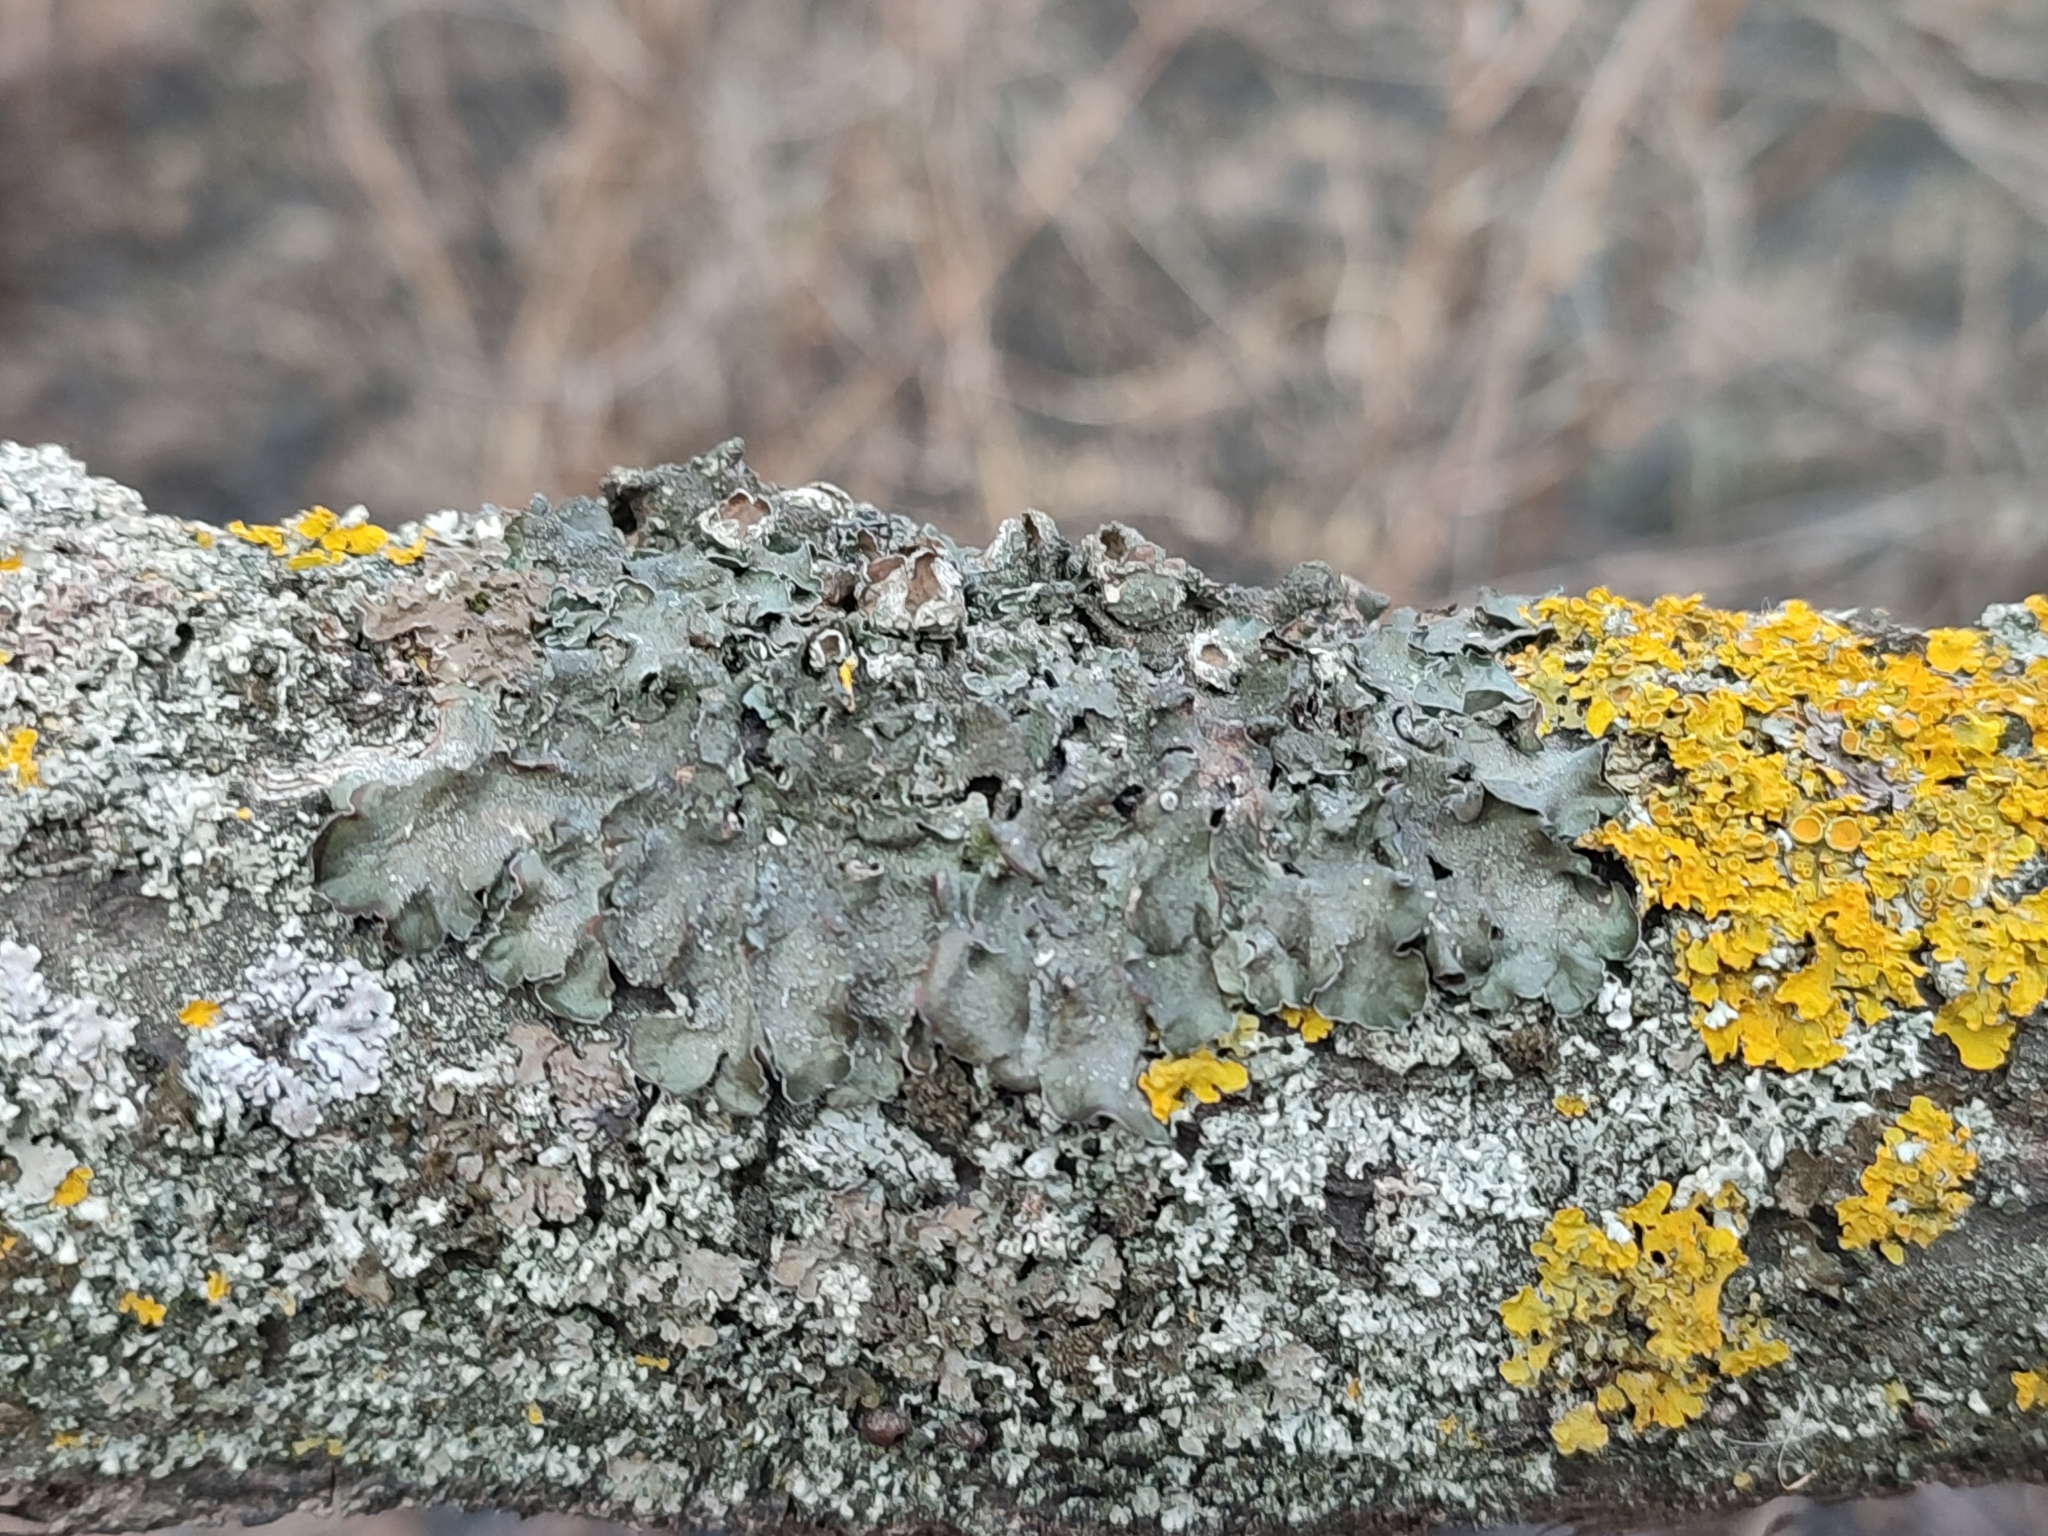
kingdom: Fungi
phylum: Ascomycota
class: Lecanoromycetes
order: Lecanorales
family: Parmeliaceae
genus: Pleurosticta
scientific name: Pleurosticta acetabulum
